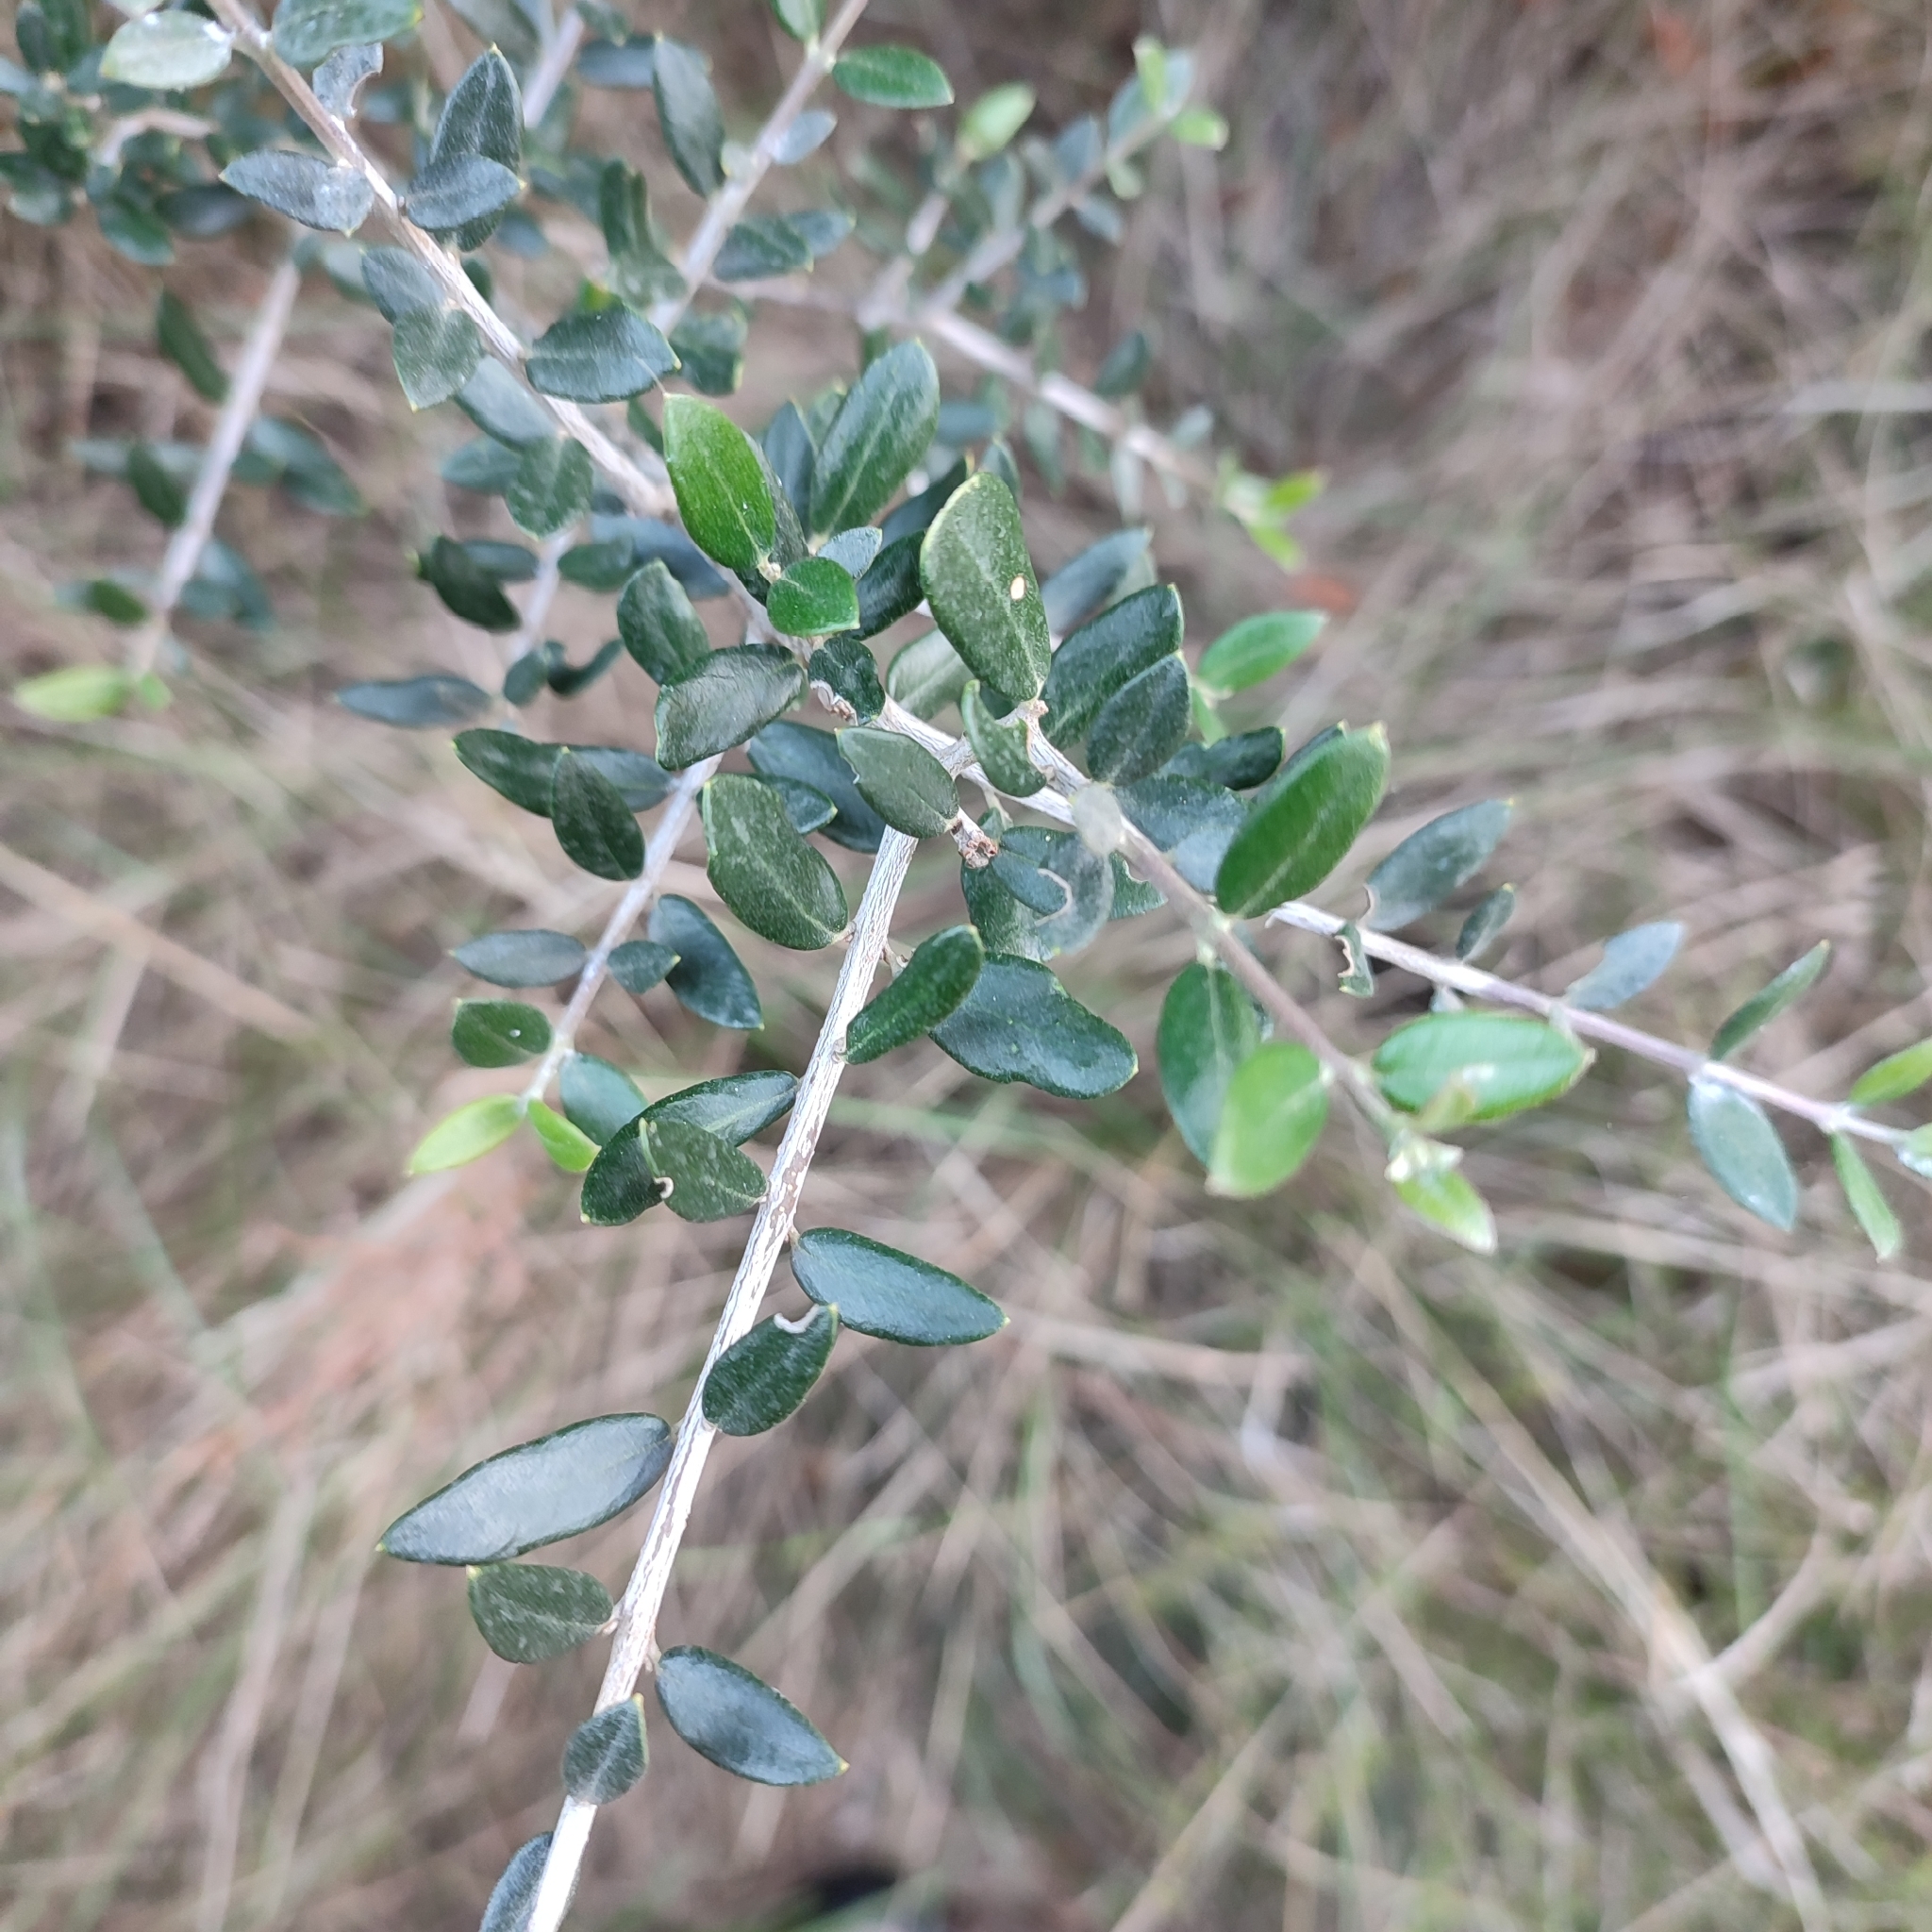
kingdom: Plantae
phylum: Tracheophyta
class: Magnoliopsida
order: Lamiales
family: Oleaceae
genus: Olea
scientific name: Olea europaea
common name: Olive
